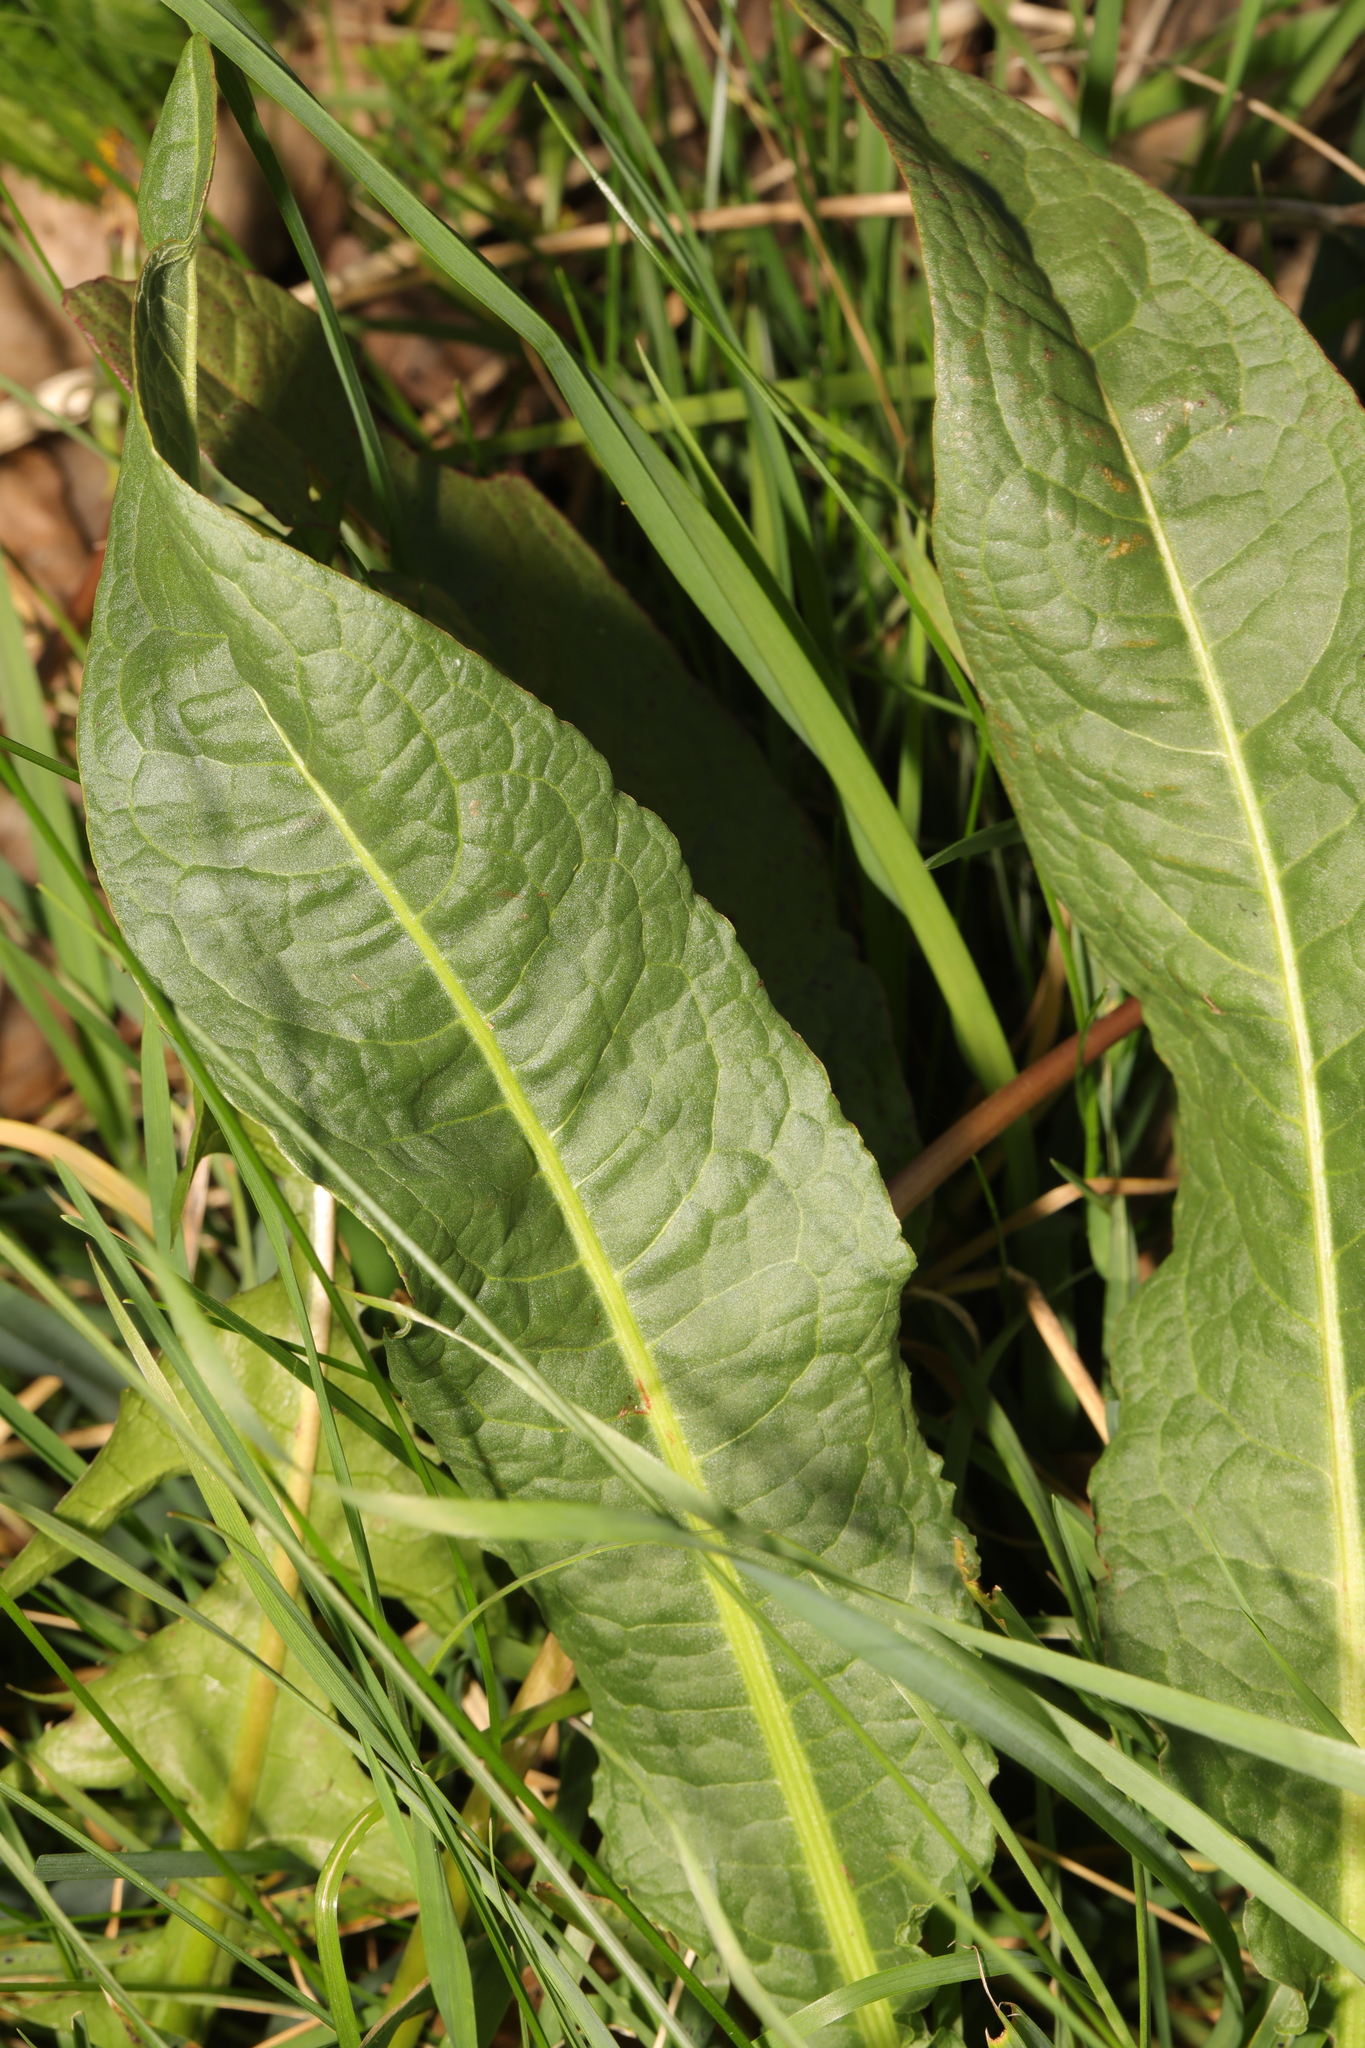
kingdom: Plantae
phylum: Tracheophyta
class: Magnoliopsida
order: Caryophyllales
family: Polygonaceae
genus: Rumex
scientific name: Rumex crispus
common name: Curled dock
